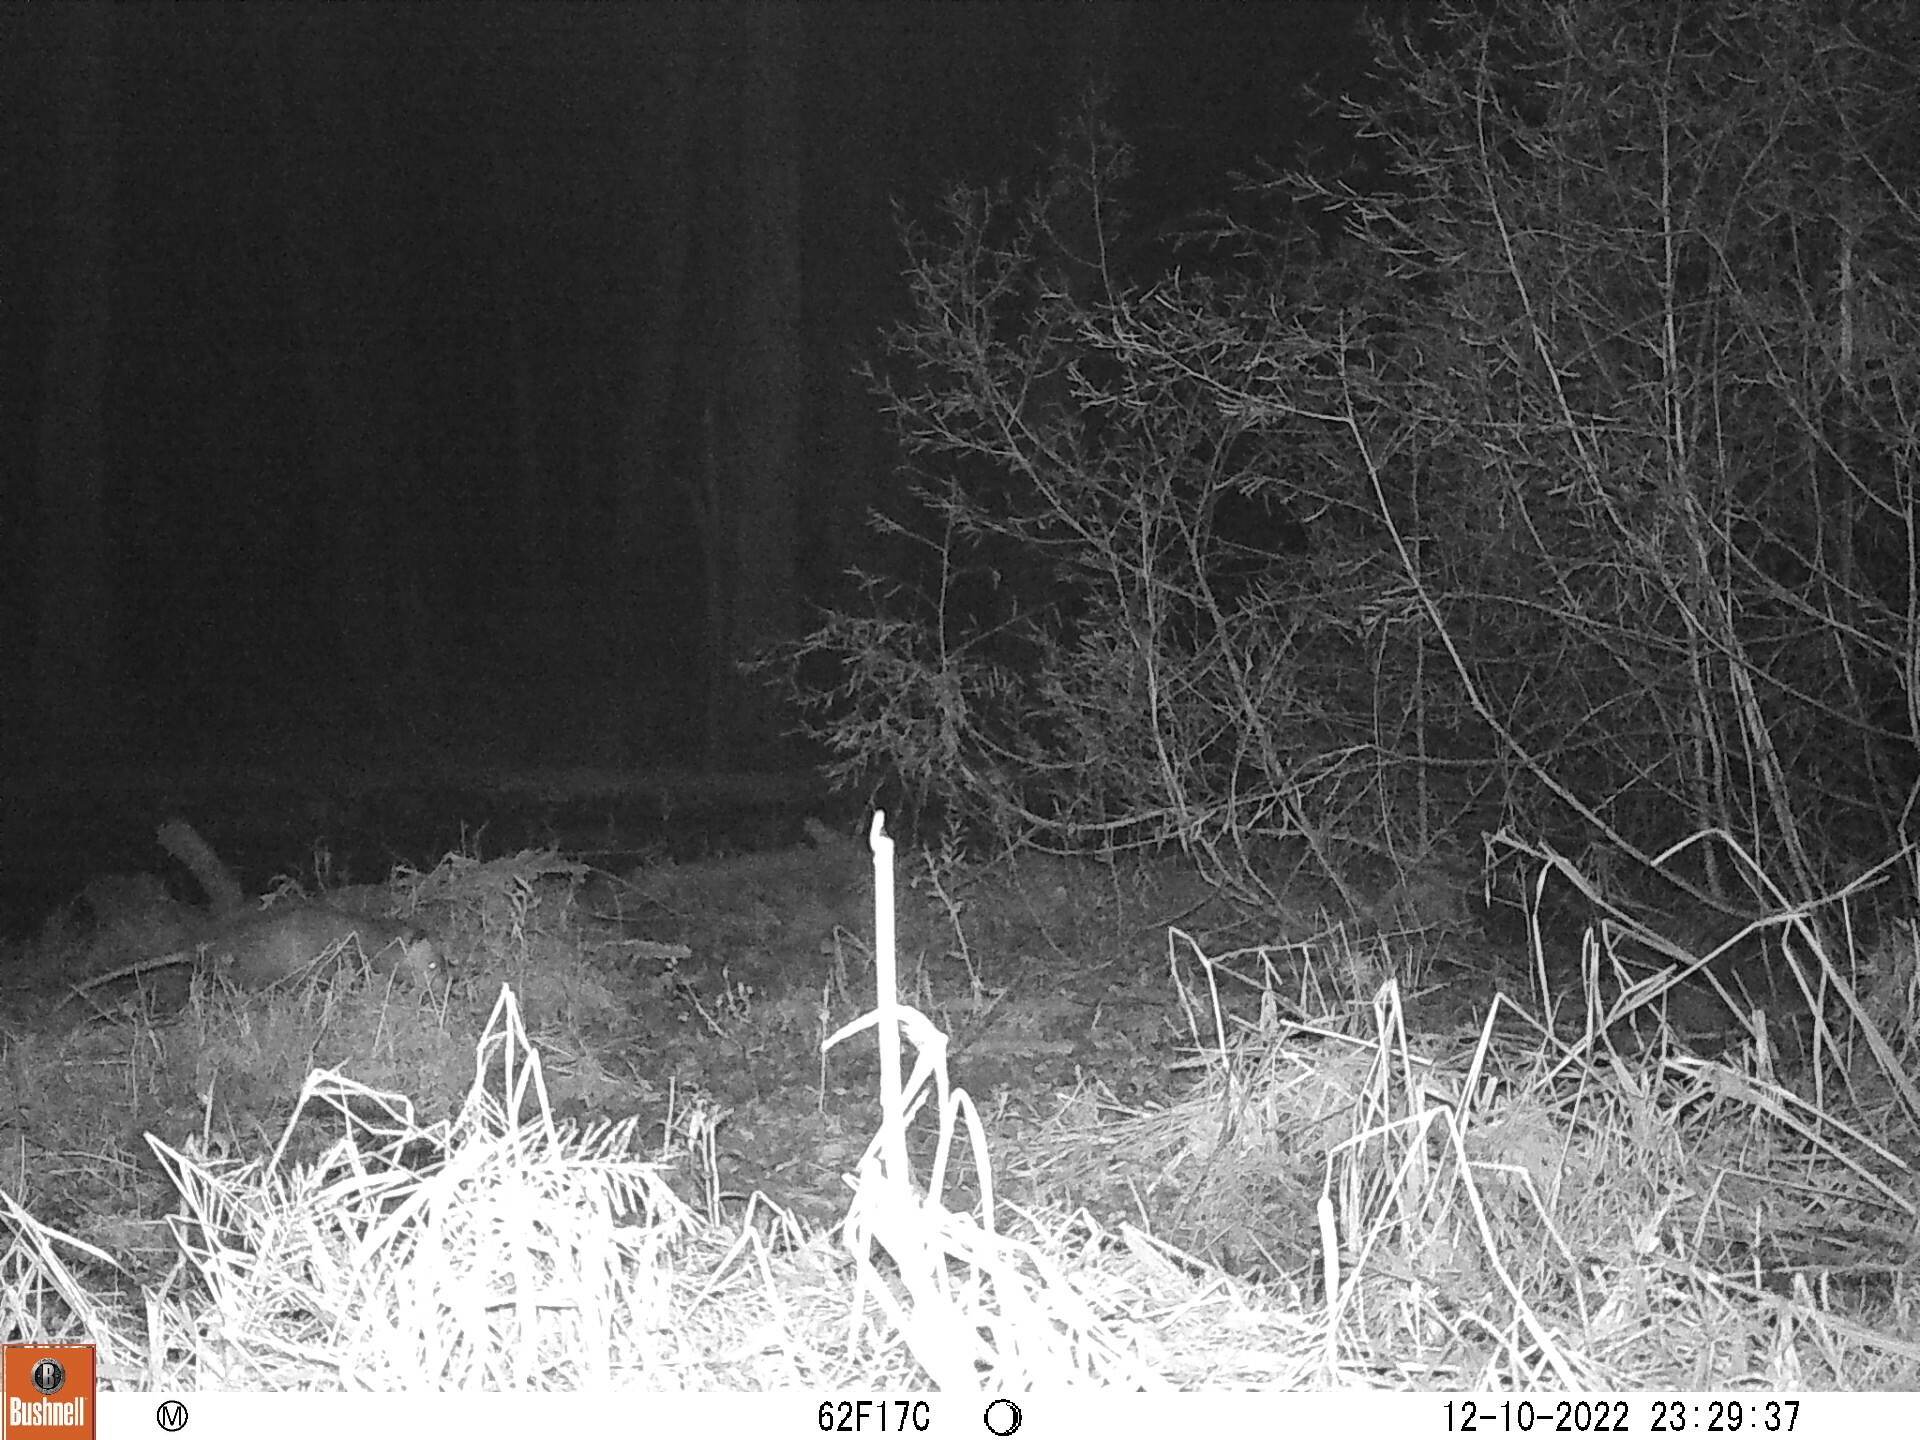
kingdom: Animalia
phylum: Chordata
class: Mammalia
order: Didelphimorphia
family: Didelphidae
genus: Didelphis
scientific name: Didelphis virginiana
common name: Virginia opossum
